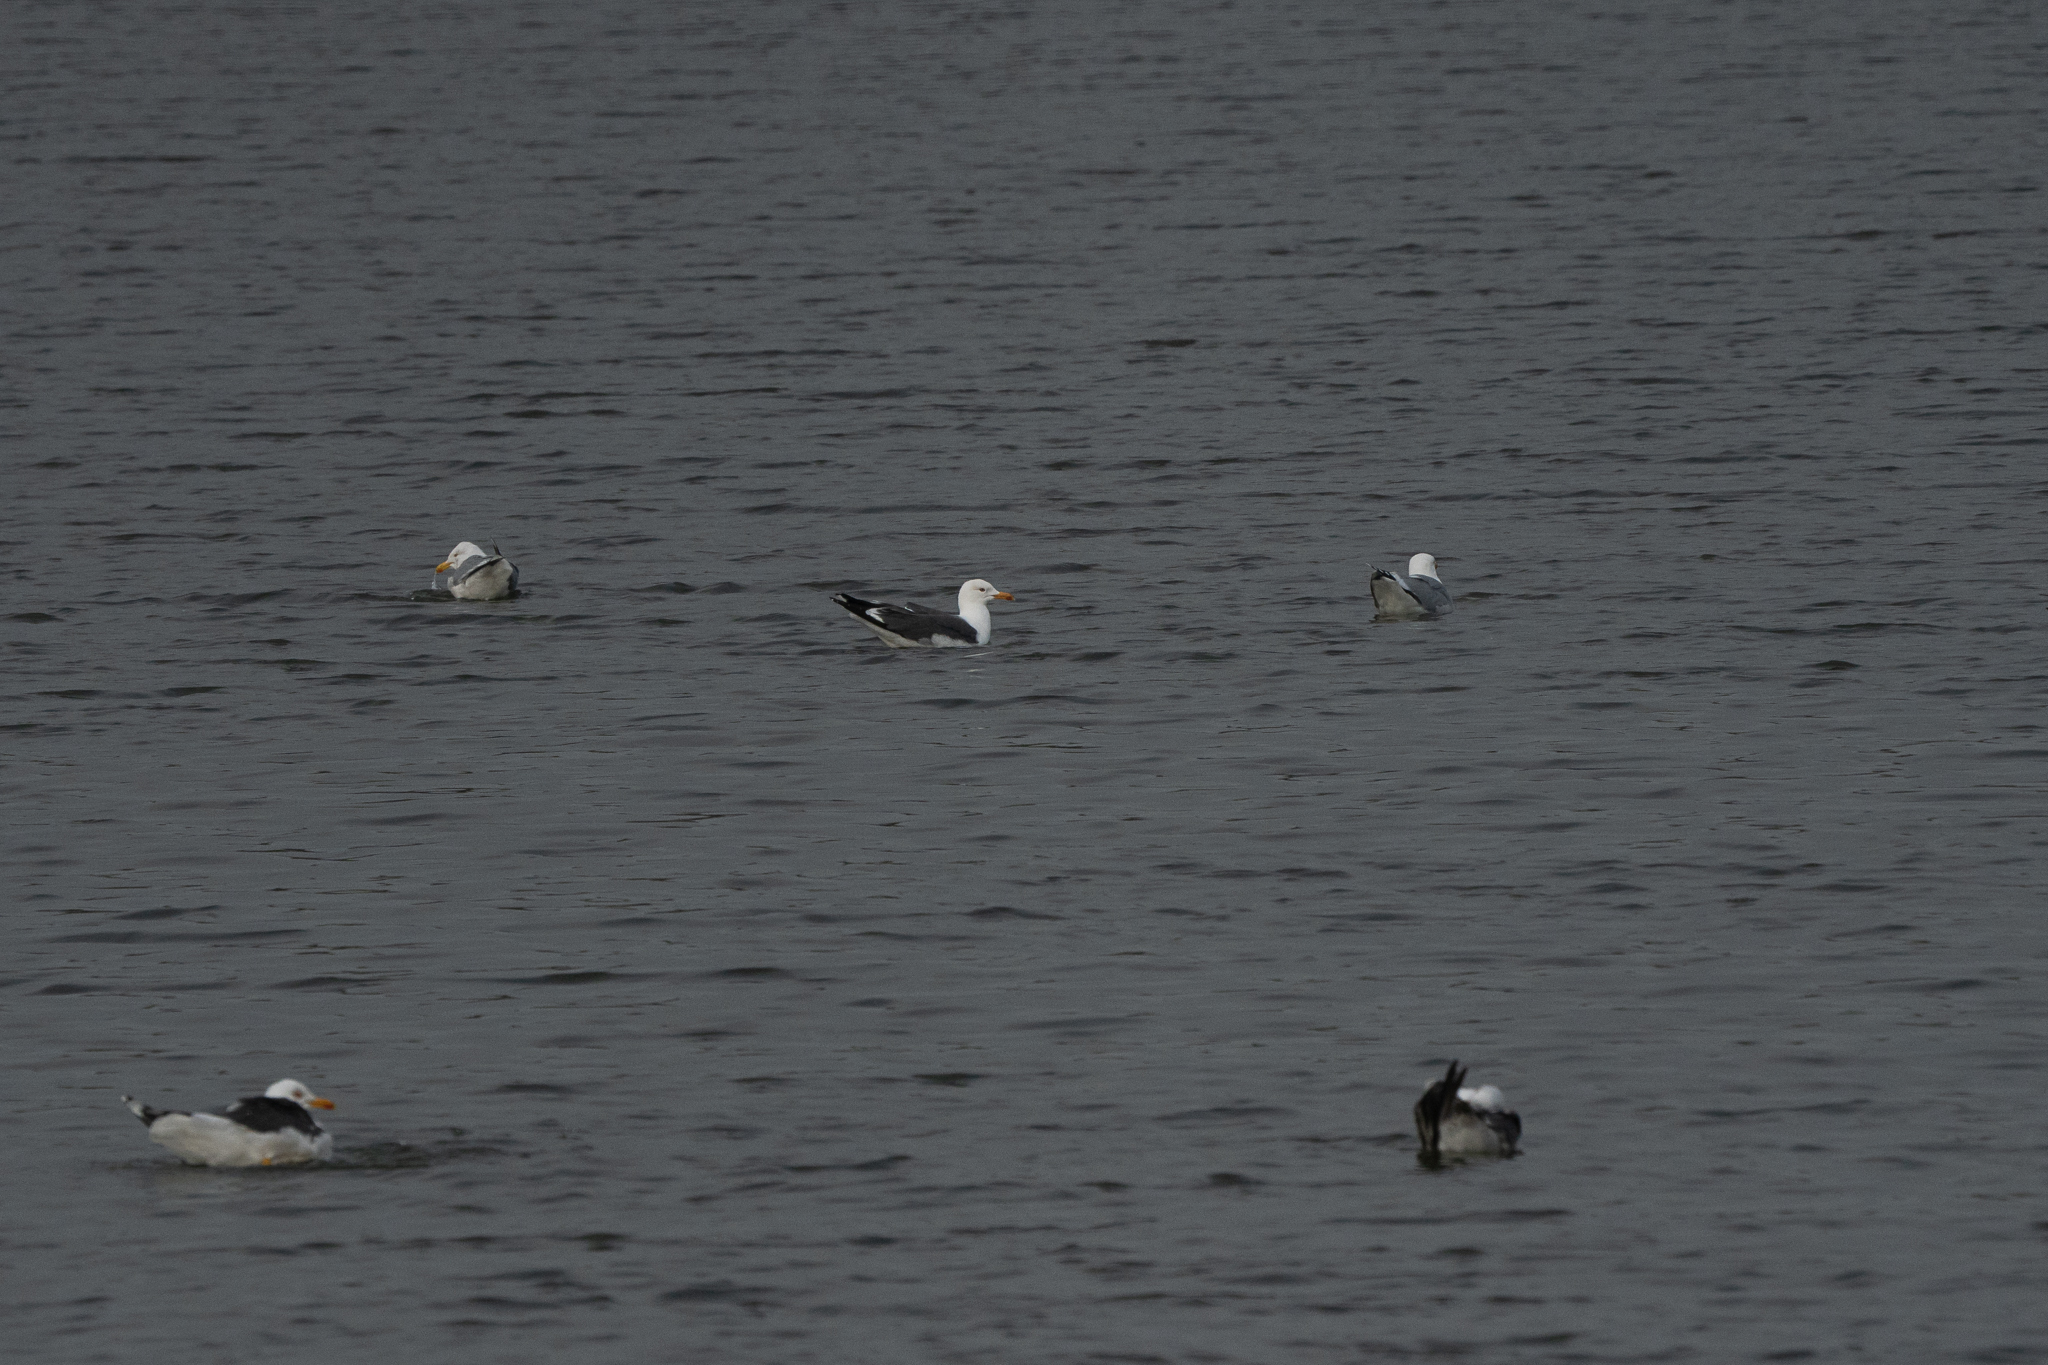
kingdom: Animalia
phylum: Chordata
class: Aves
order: Charadriiformes
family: Laridae
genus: Larus
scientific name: Larus fuscus
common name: Lesser black-backed gull
